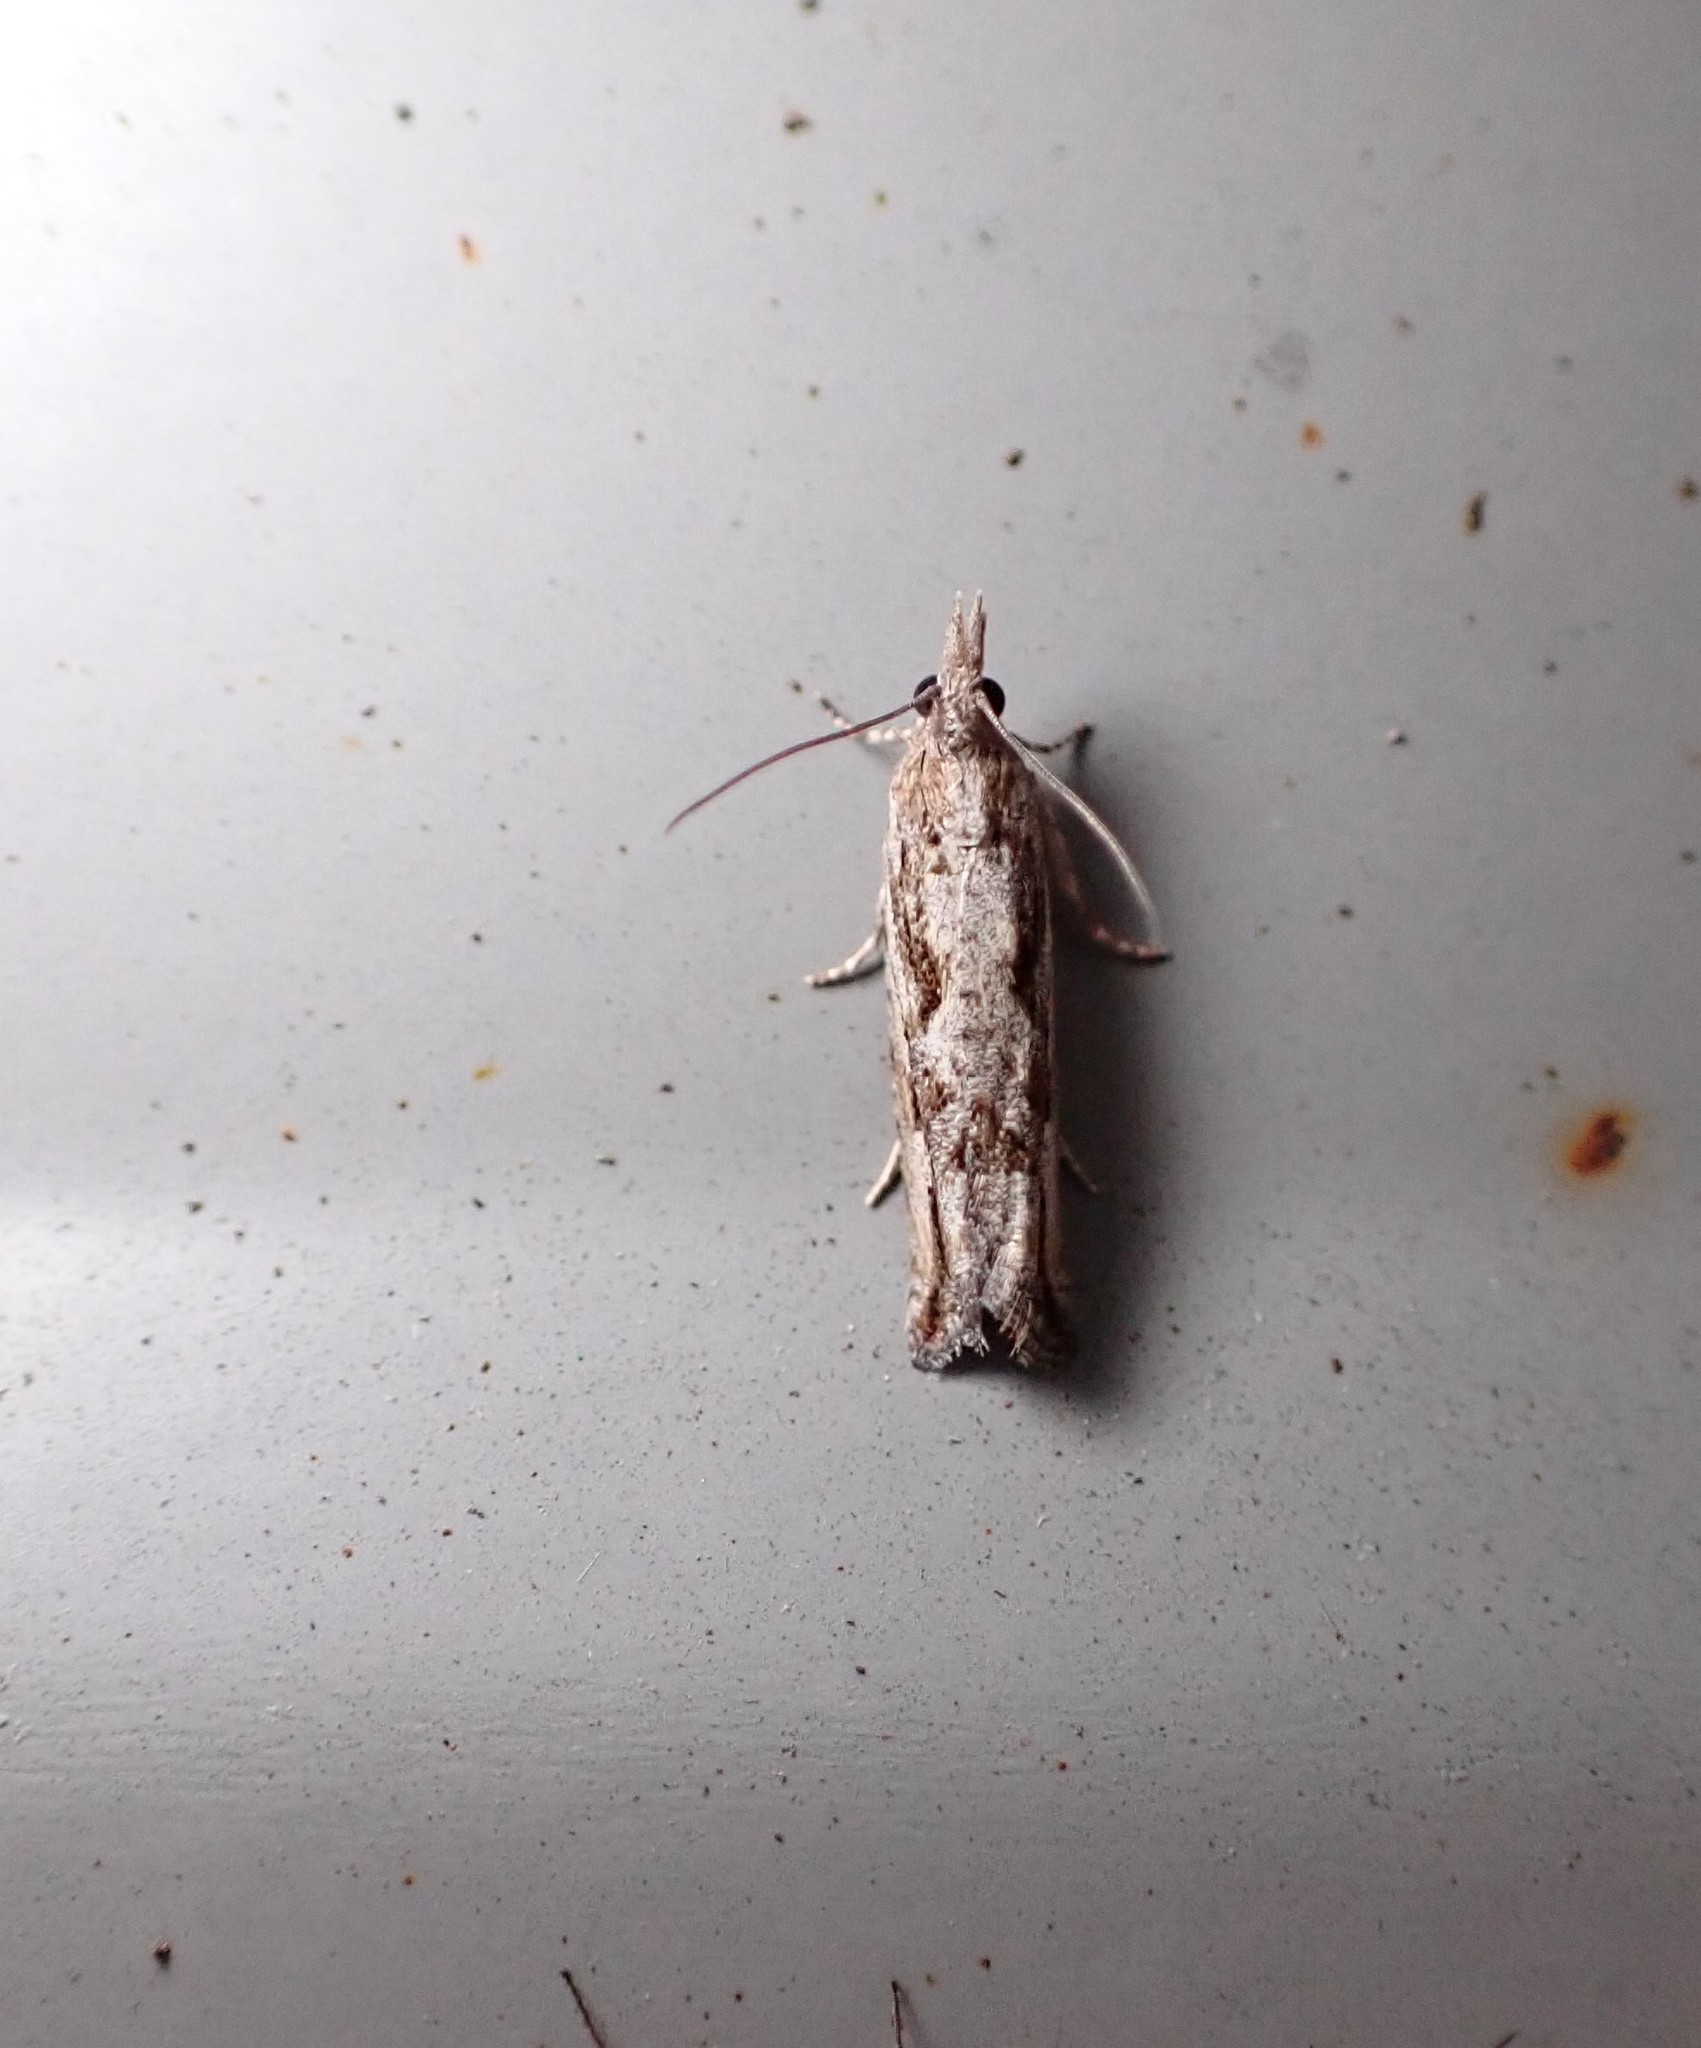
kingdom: Animalia
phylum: Arthropoda
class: Insecta
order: Lepidoptera
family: Tortricidae
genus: Holocola
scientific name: Holocola
